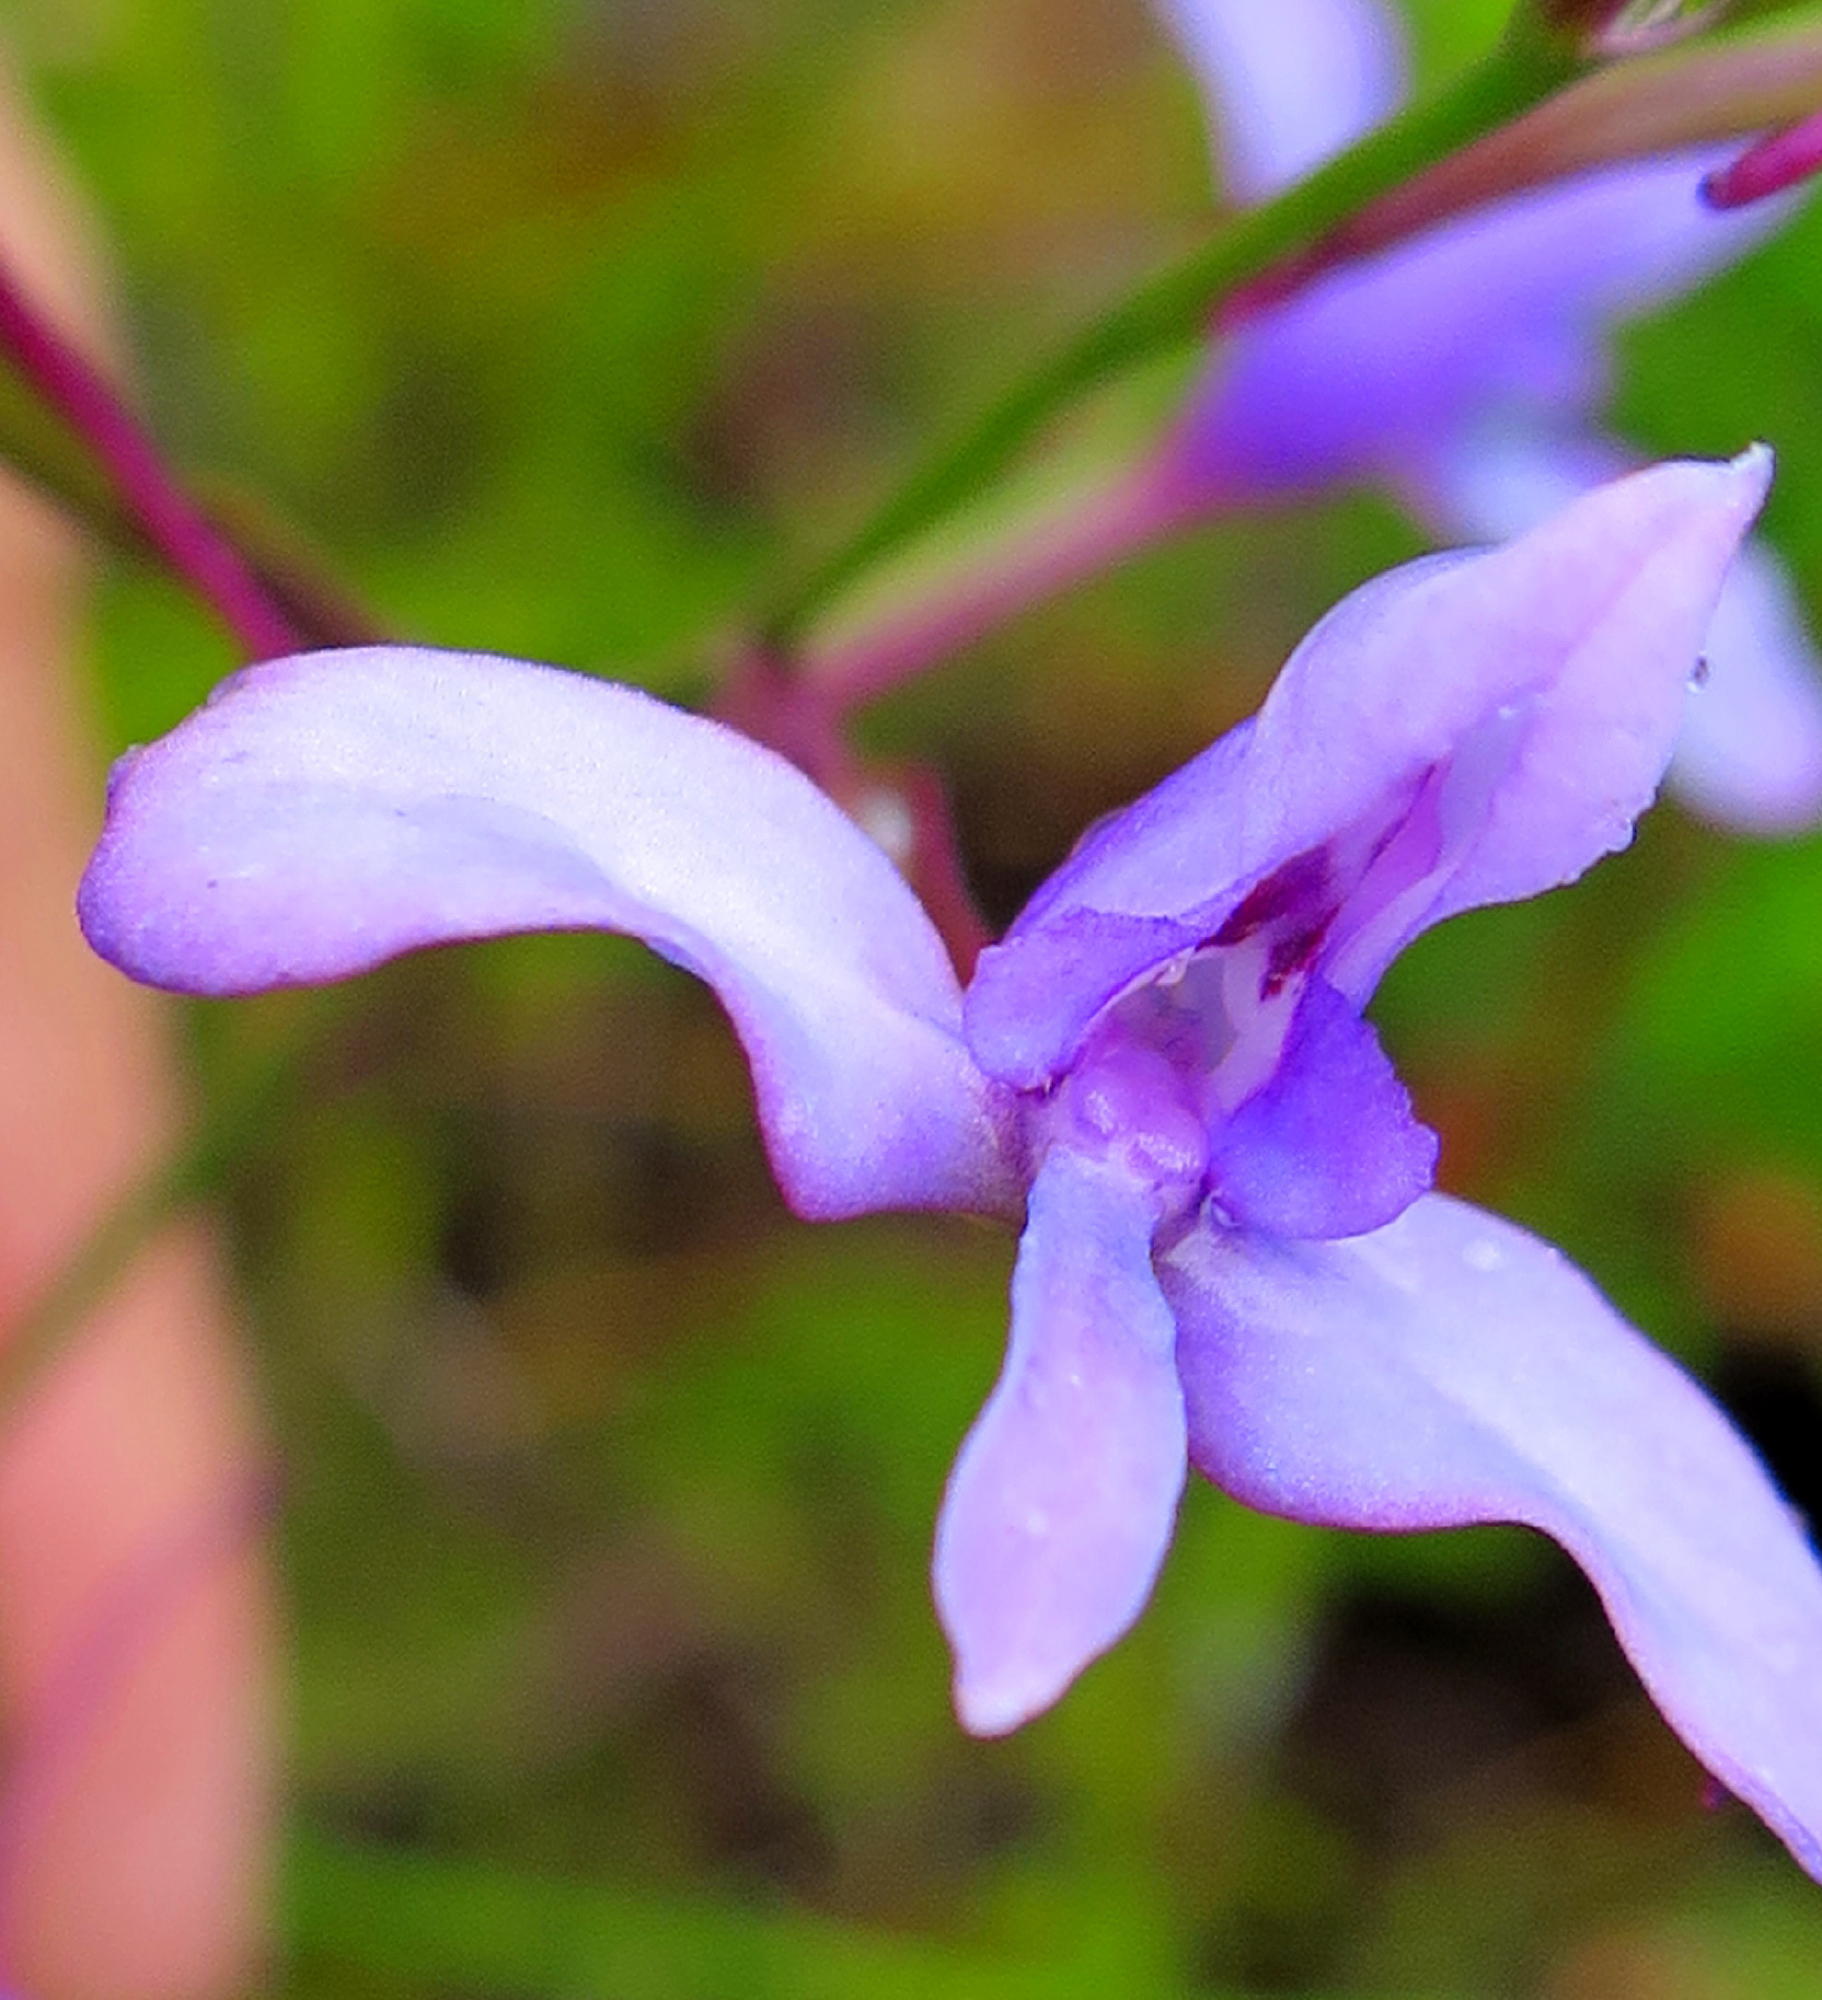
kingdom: Plantae
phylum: Tracheophyta
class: Liliopsida
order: Asparagales
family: Orchidaceae
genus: Disa
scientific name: Disa arida
